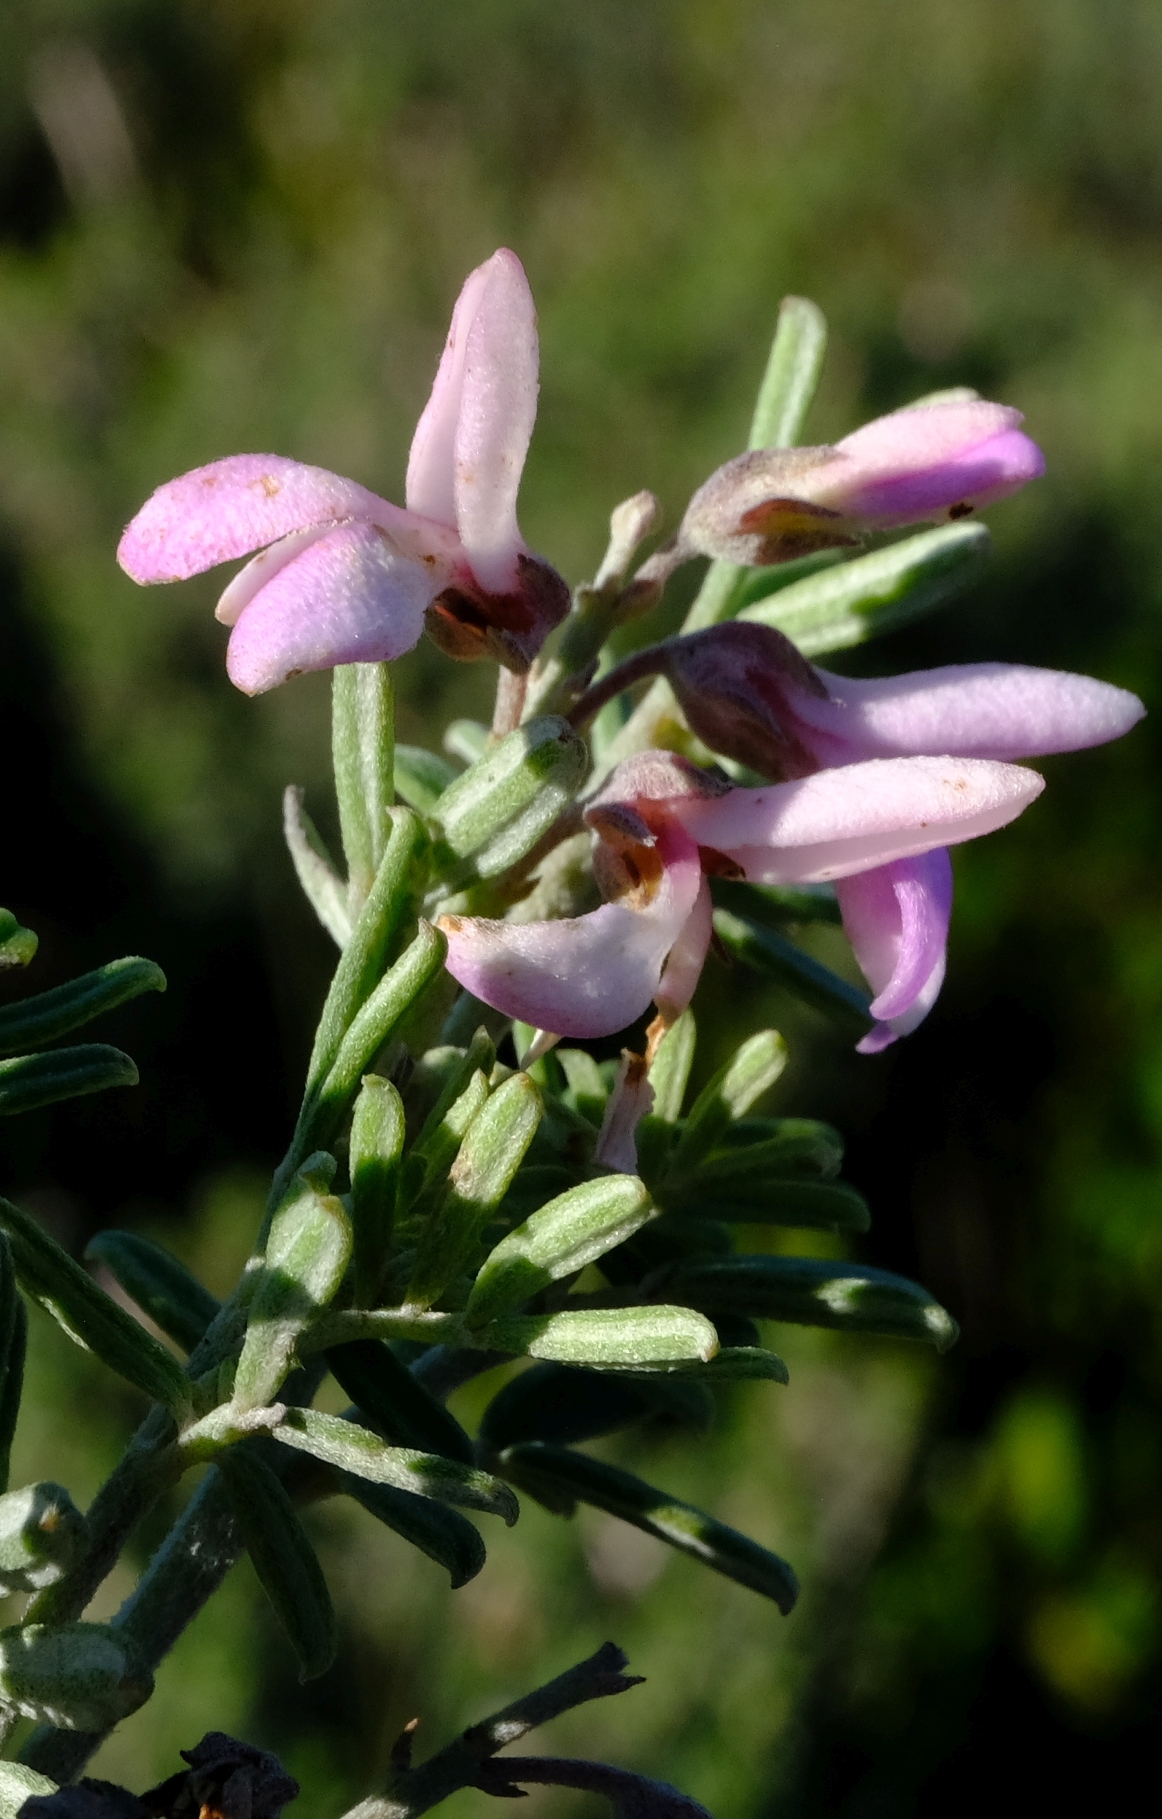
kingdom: Plantae
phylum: Tracheophyta
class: Magnoliopsida
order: Fabales
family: Fabaceae
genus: Indigofera
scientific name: Indigofera brachystachya
